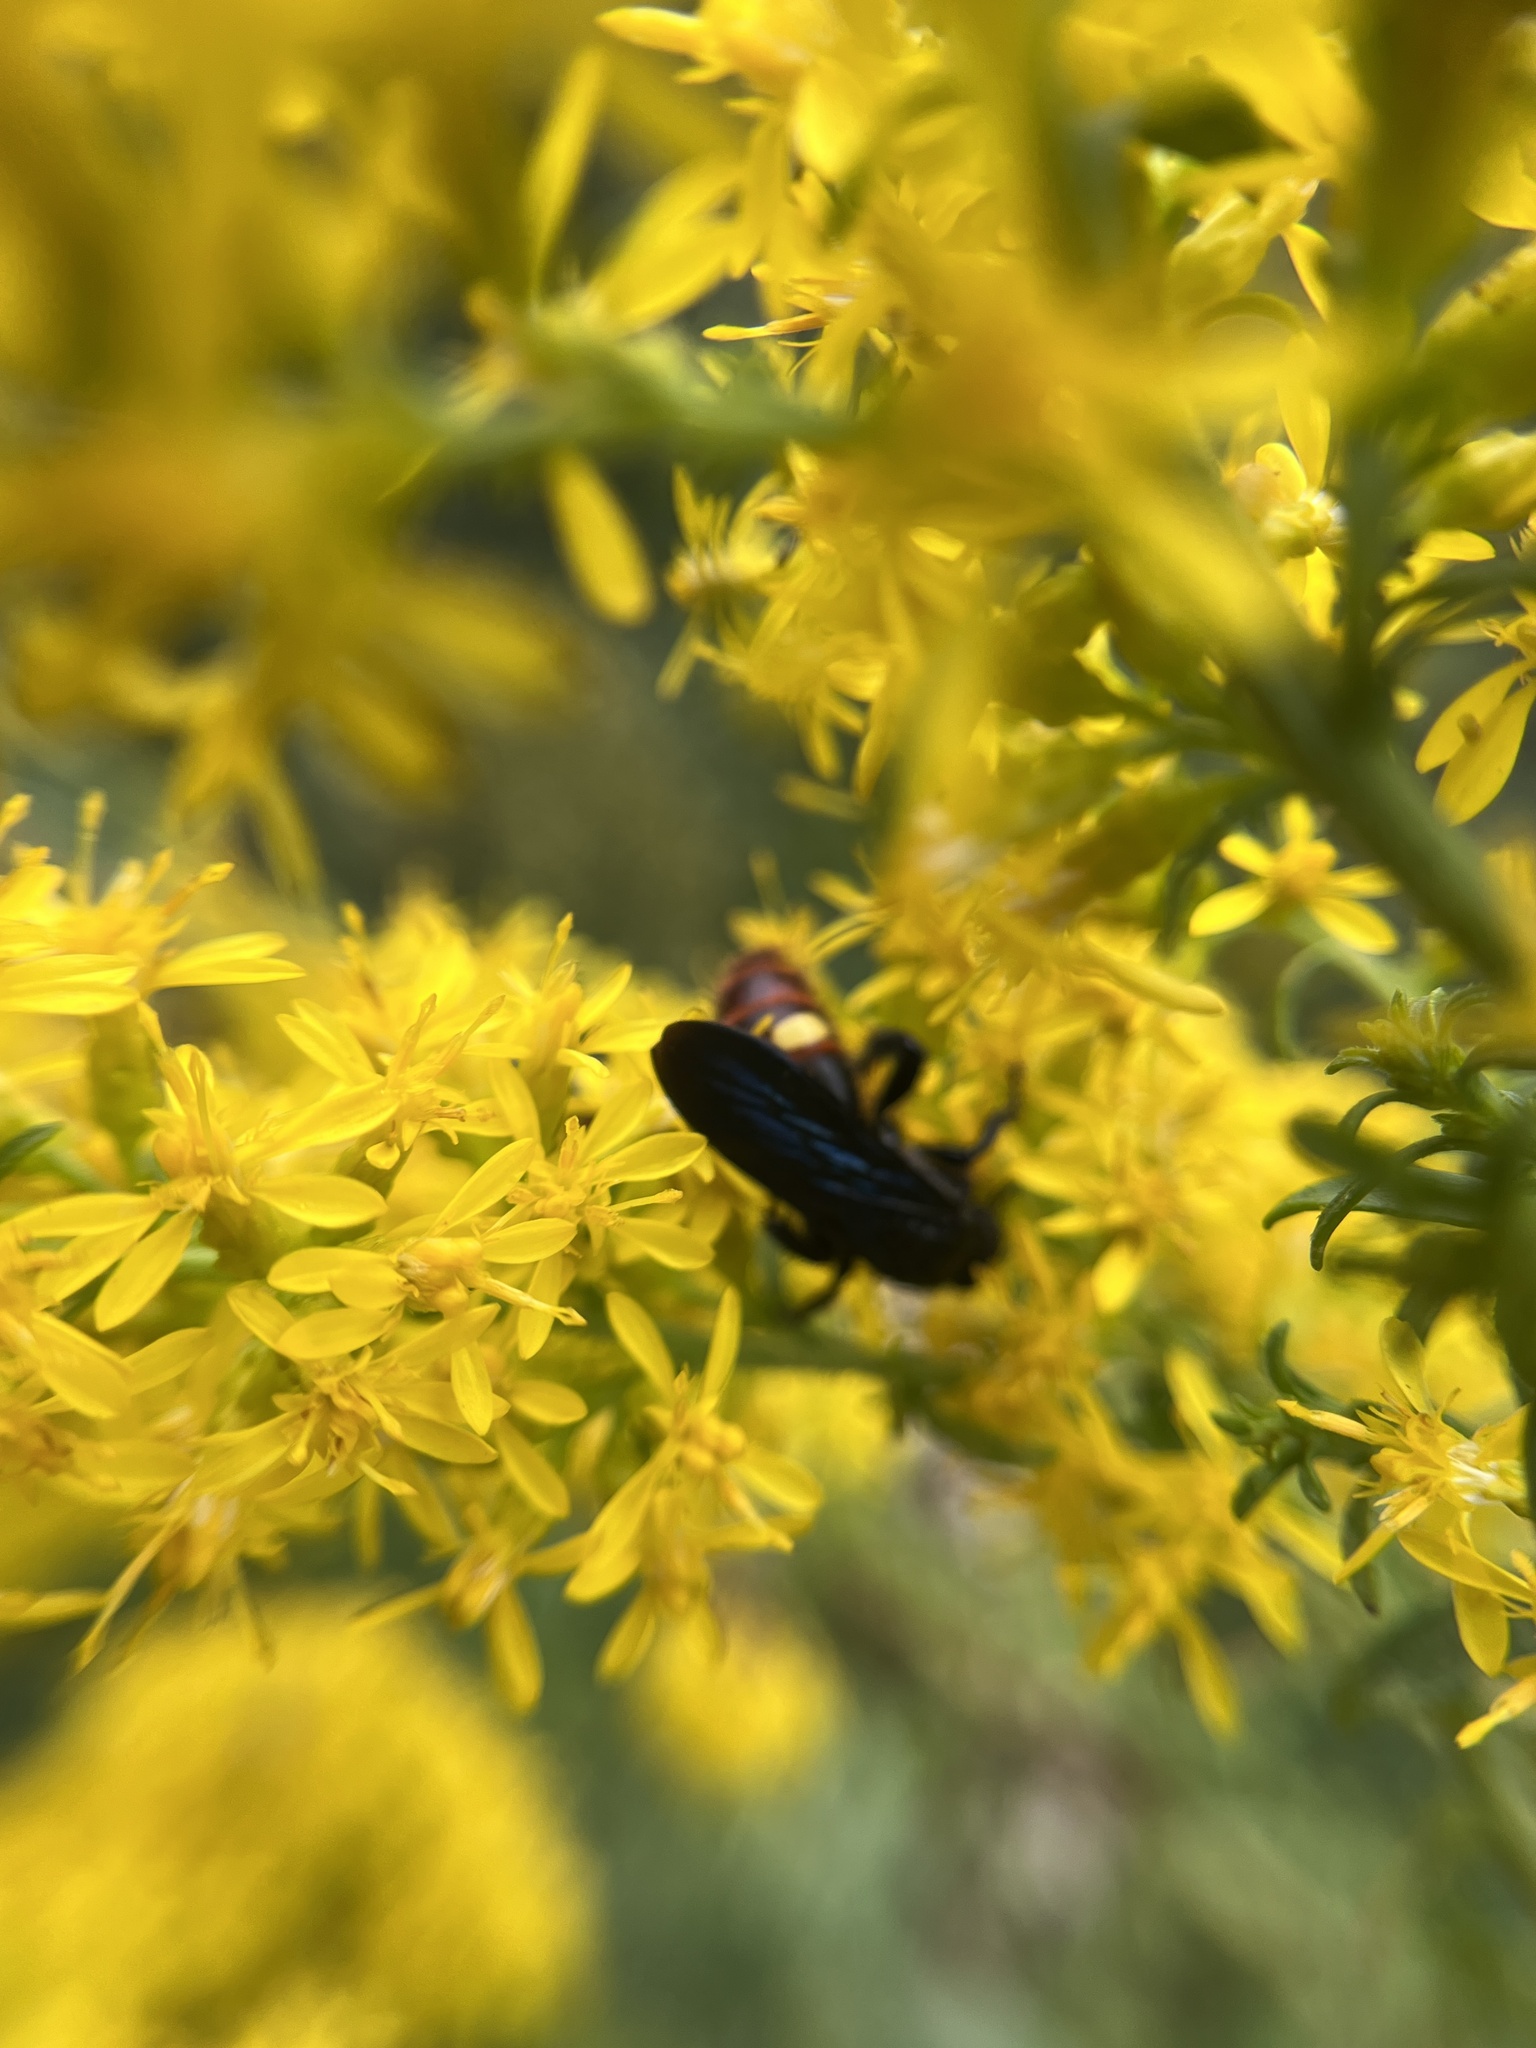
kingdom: Animalia
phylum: Arthropoda
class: Insecta
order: Hymenoptera
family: Scoliidae
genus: Scolia
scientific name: Scolia dubia
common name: Blue-winged scoliid wasp
